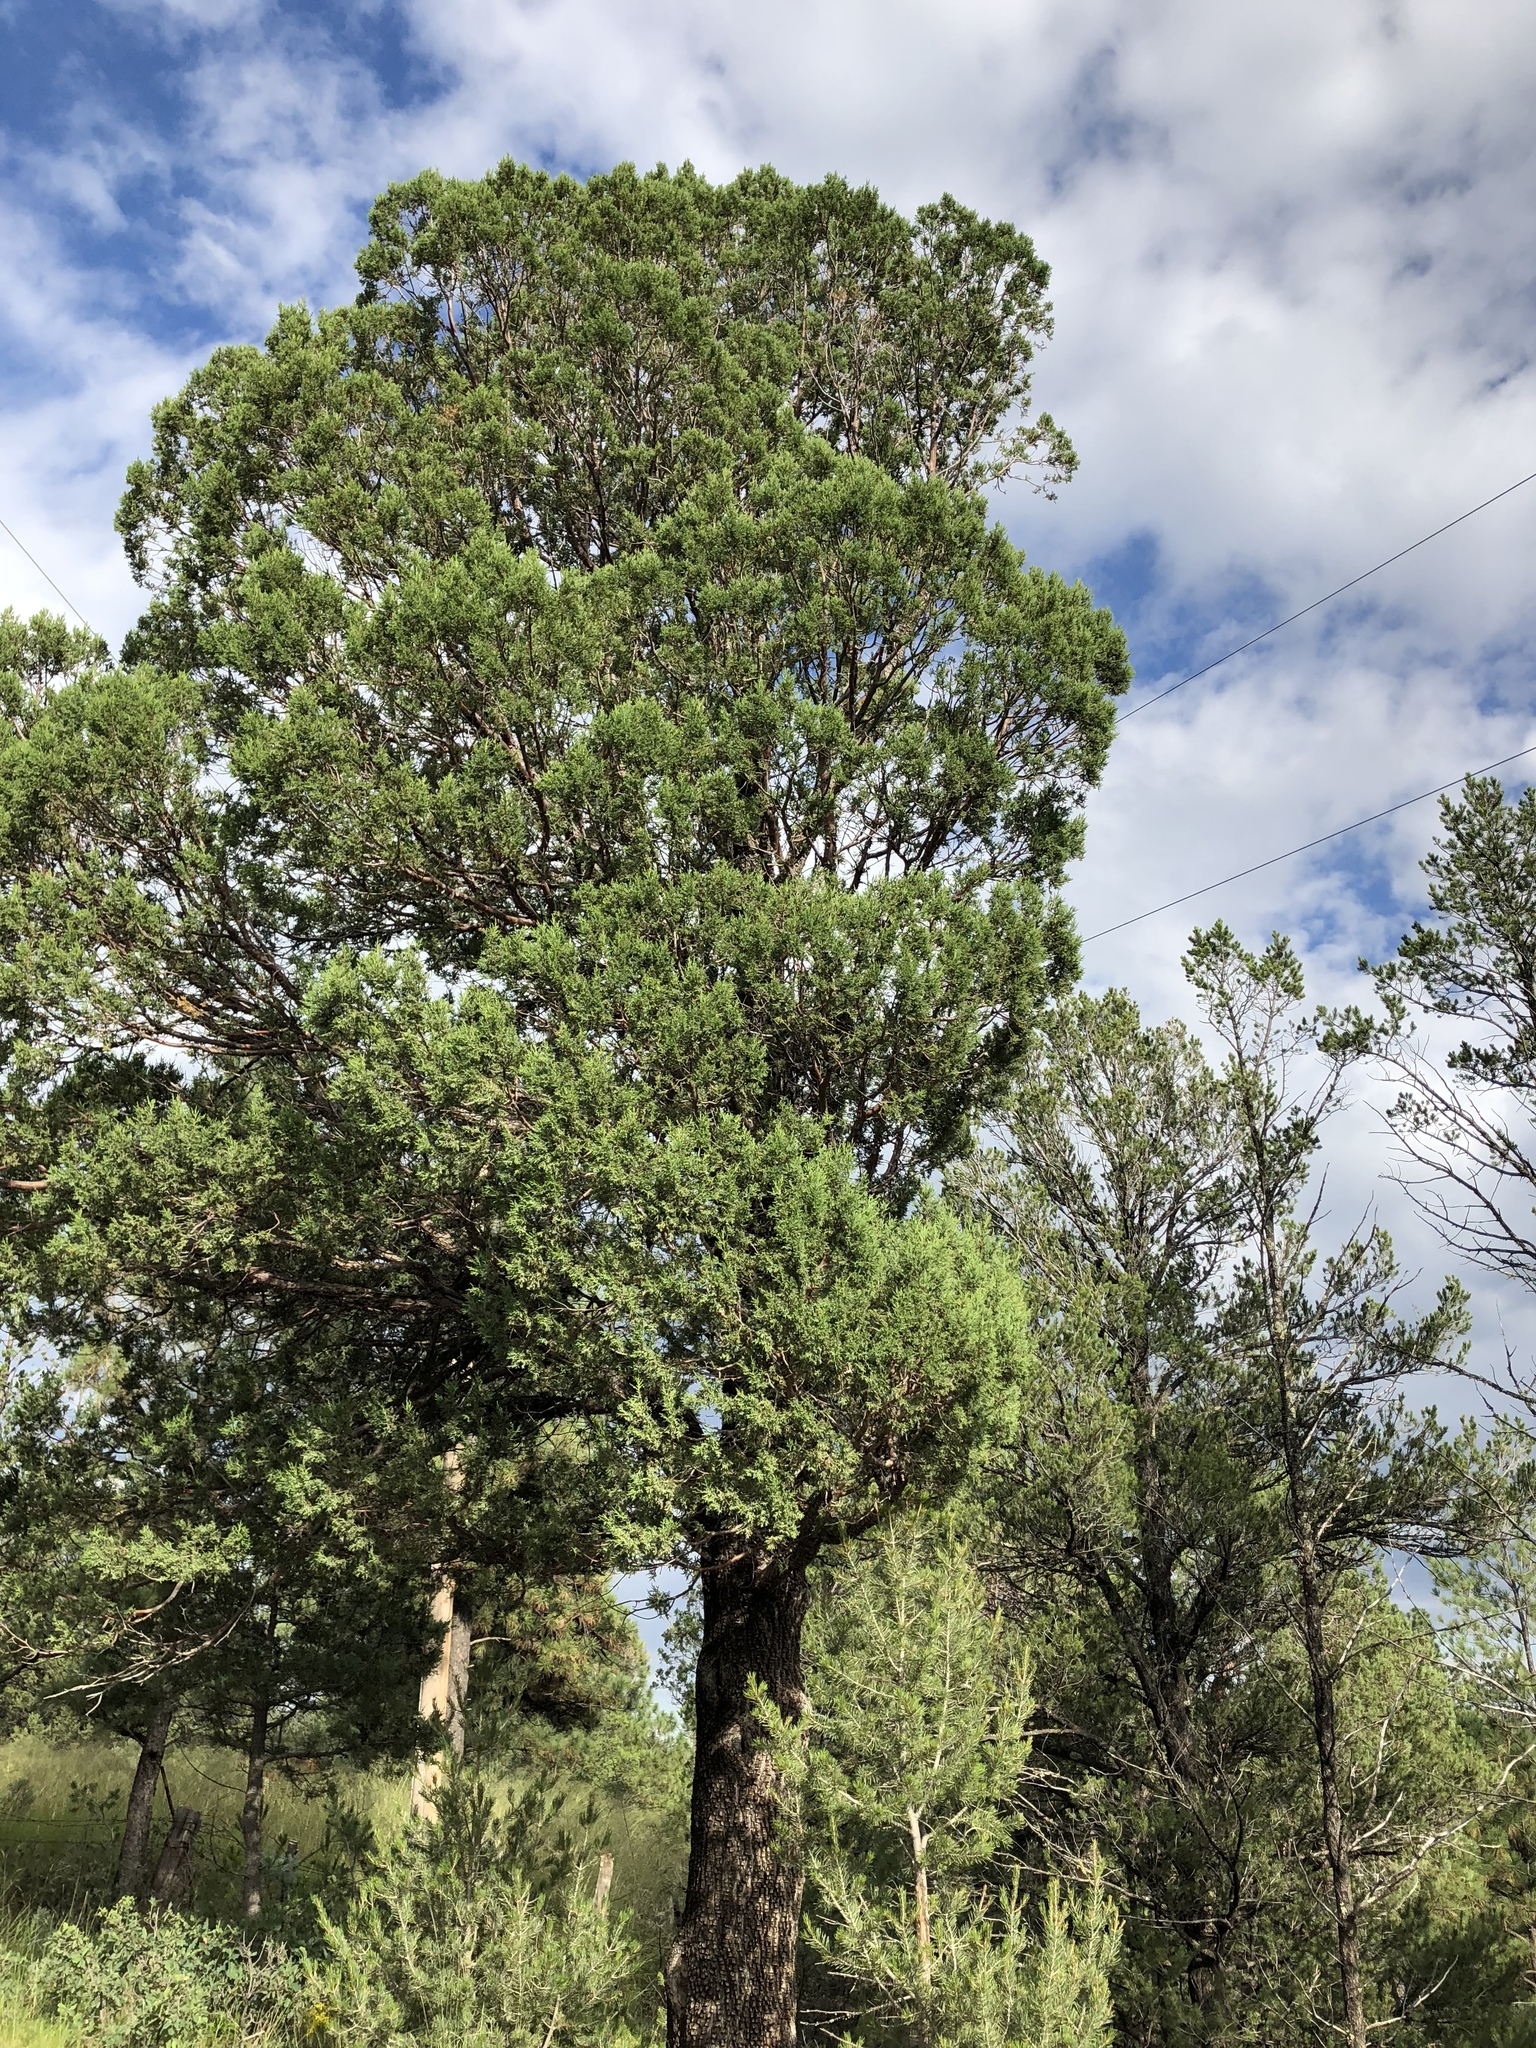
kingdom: Plantae
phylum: Tracheophyta
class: Pinopsida
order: Pinales
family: Cupressaceae
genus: Juniperus
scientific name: Juniperus deppeana
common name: Alligator juniper
